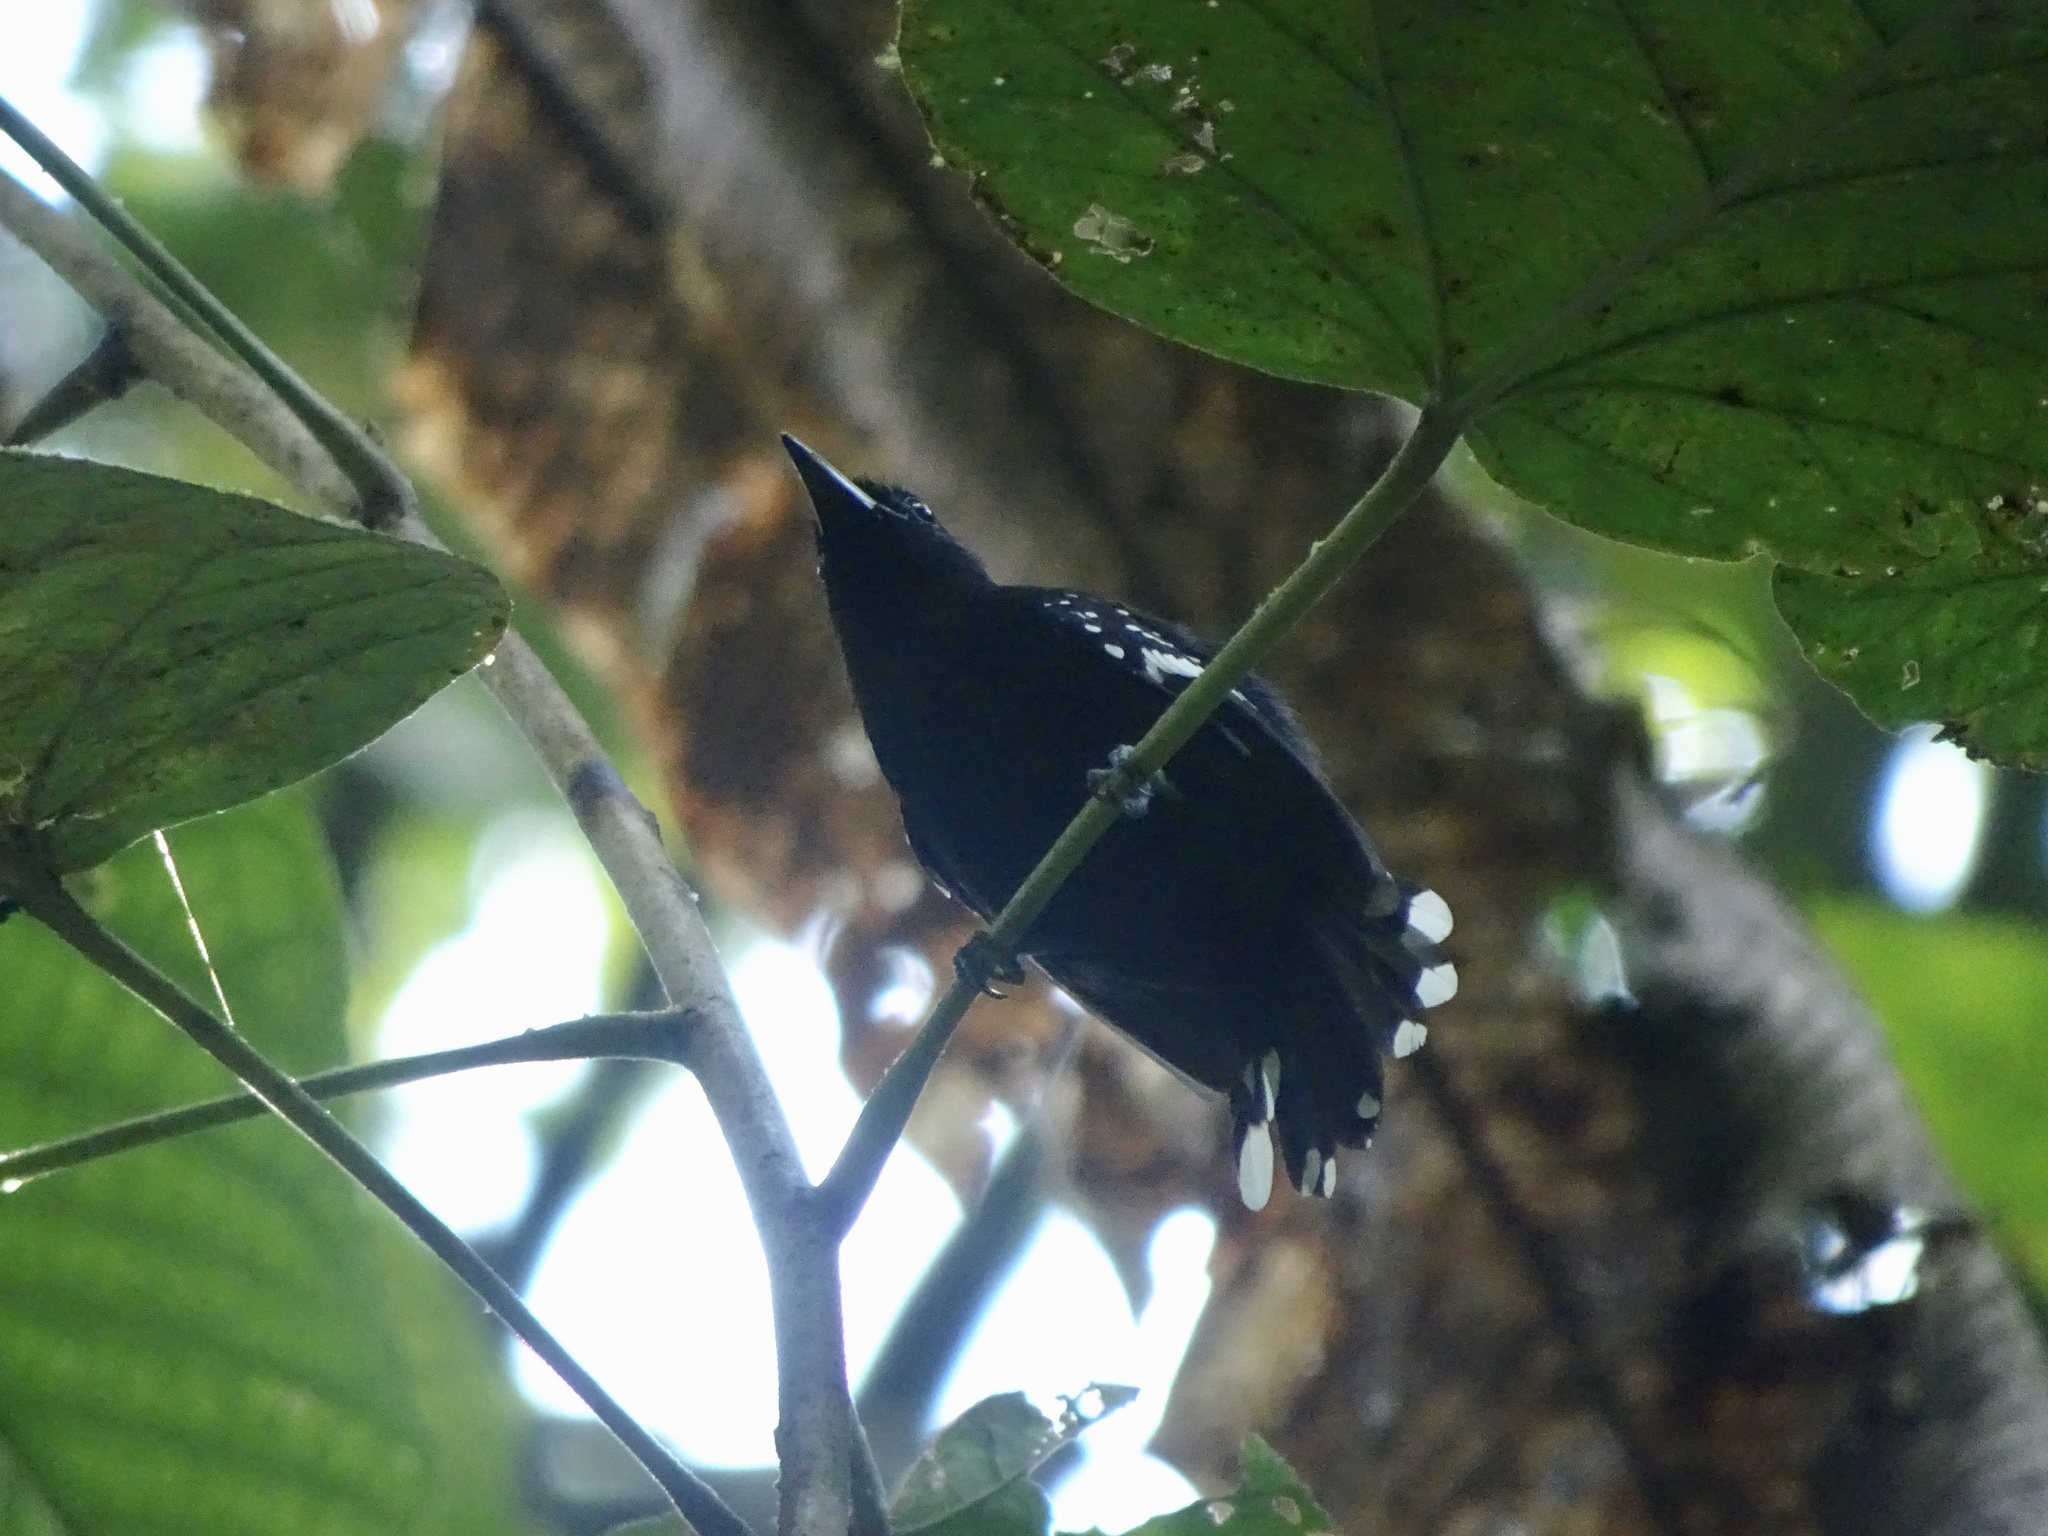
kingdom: Animalia
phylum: Chordata
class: Aves
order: Passeriformes
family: Thamnophilidae
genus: Microrhopias
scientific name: Microrhopias quixensis
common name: Dot-winged antwren
